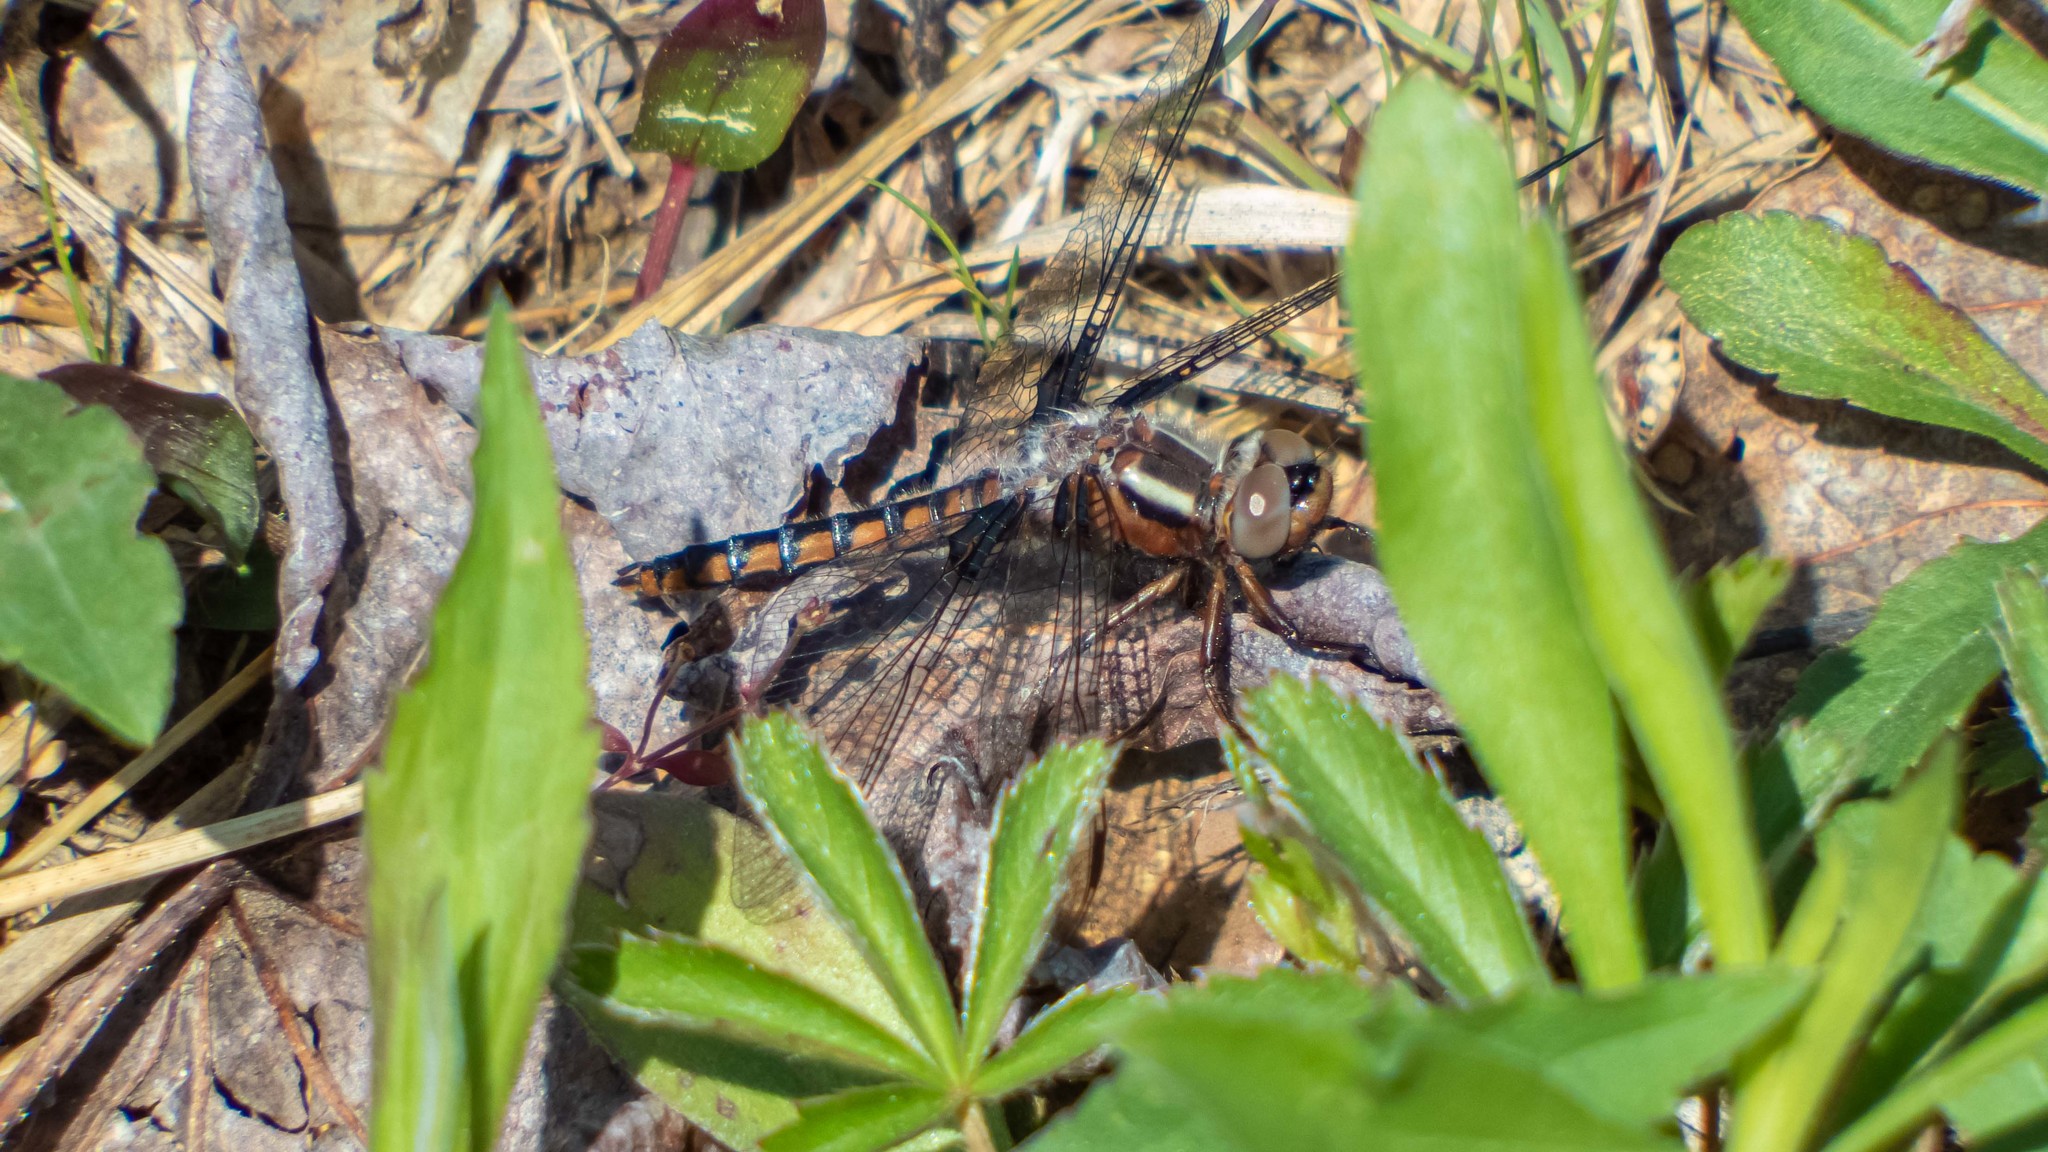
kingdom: Animalia
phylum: Arthropoda
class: Insecta
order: Odonata
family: Libellulidae
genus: Ladona
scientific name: Ladona deplanata
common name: Blue corporal
